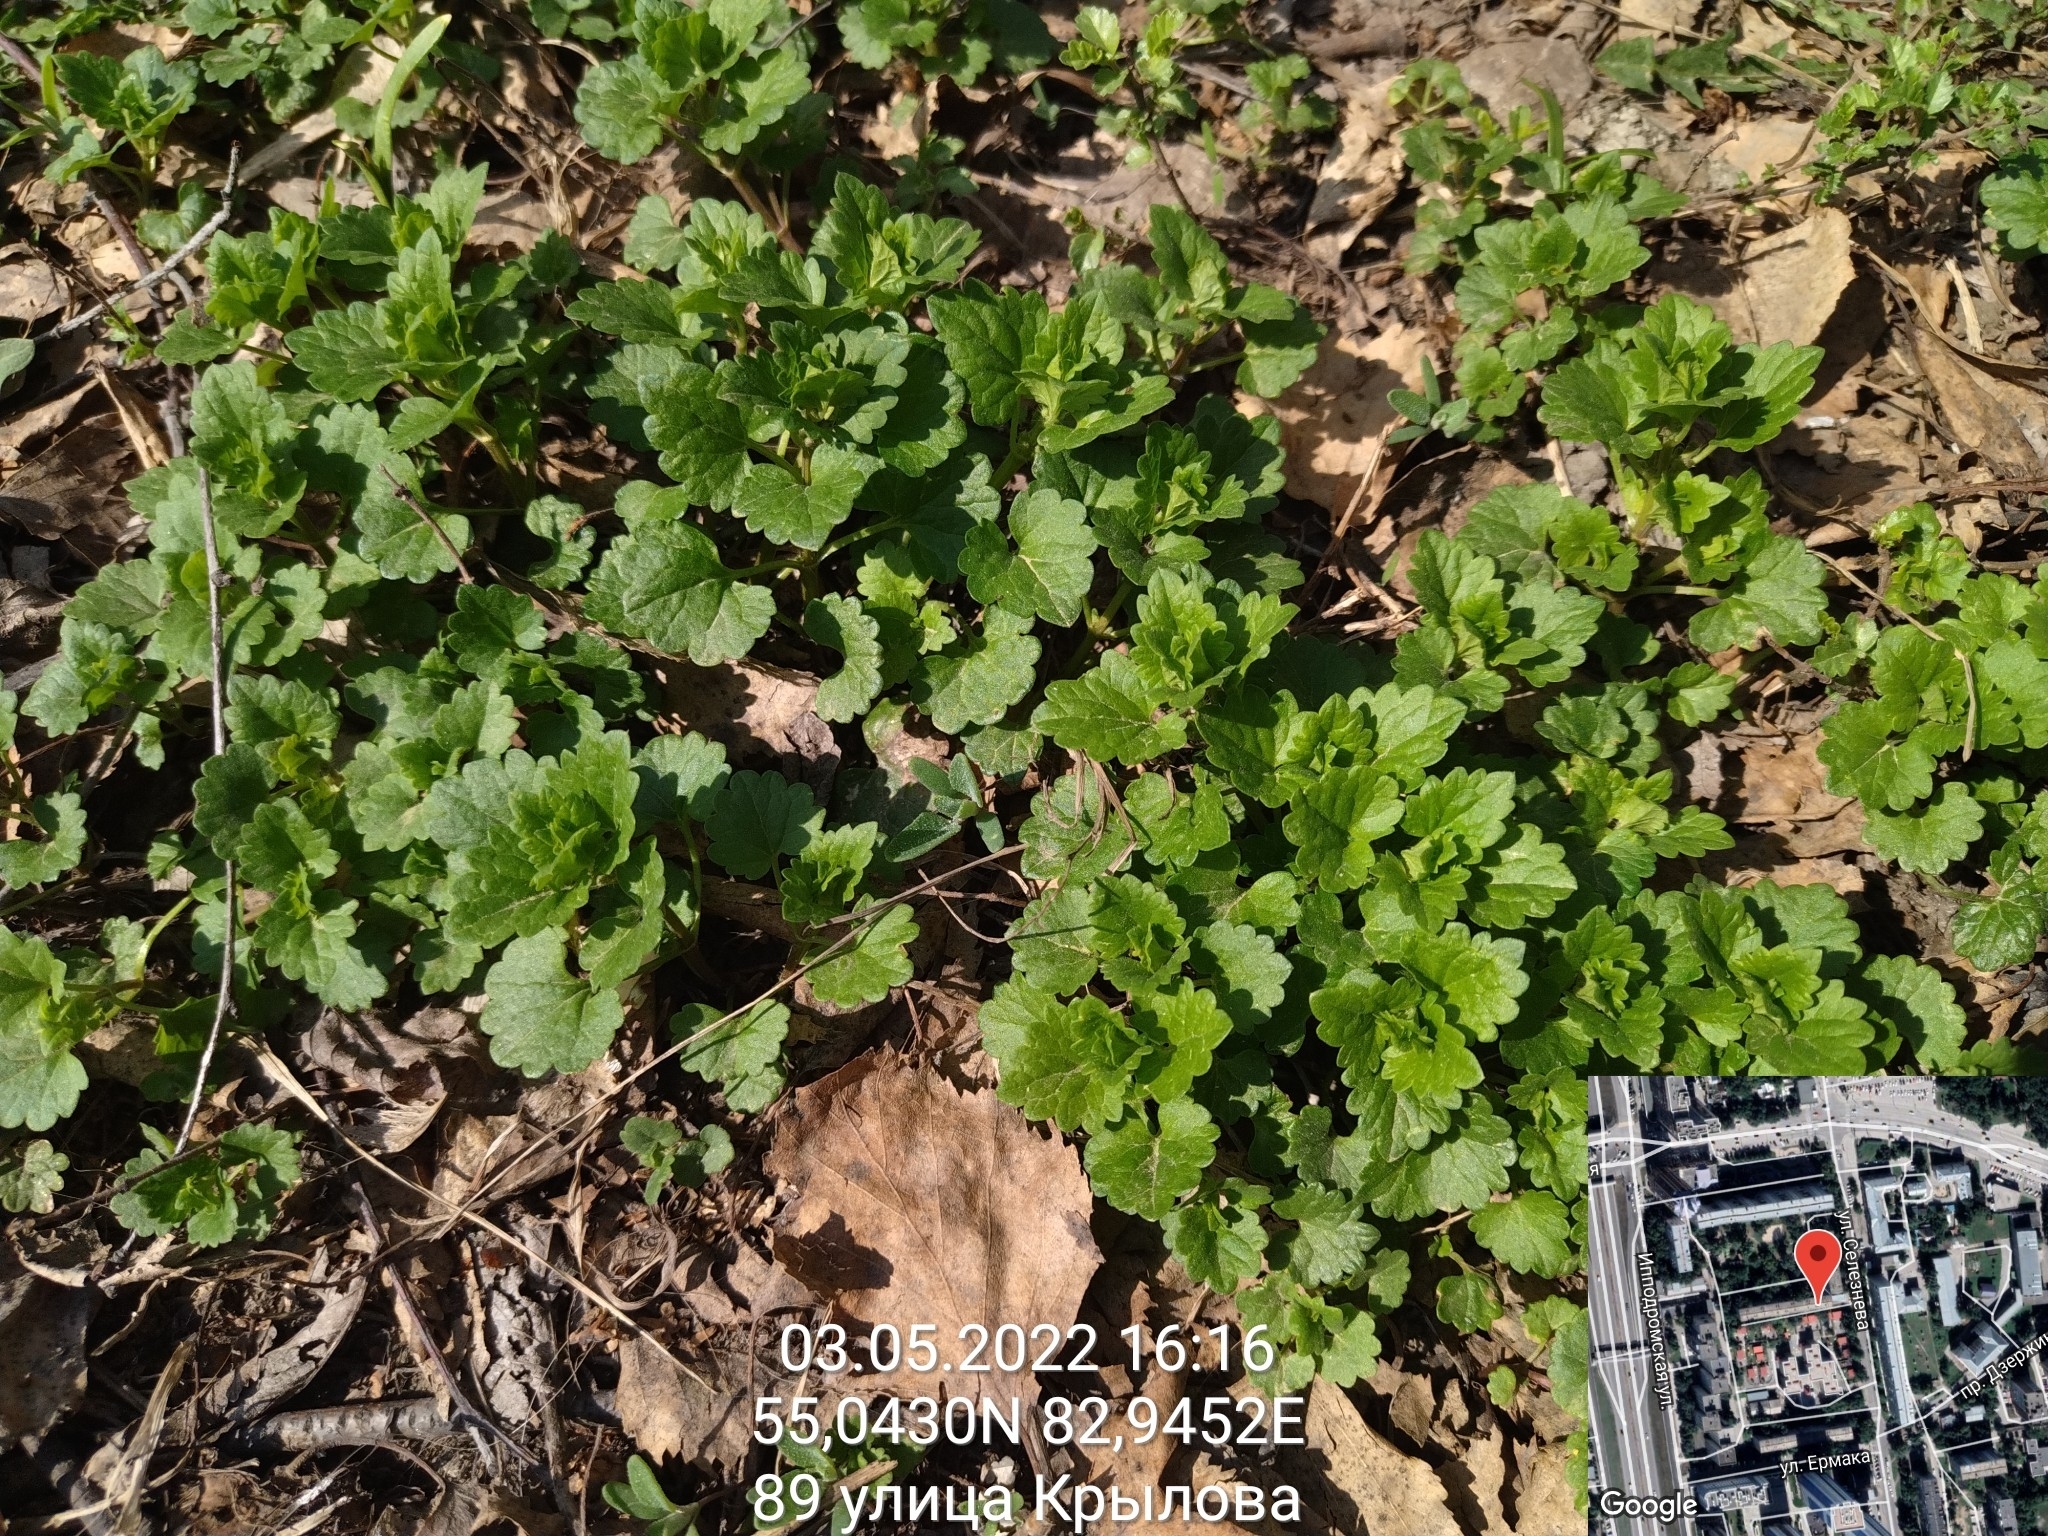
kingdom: Plantae
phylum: Tracheophyta
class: Magnoliopsida
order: Lamiales
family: Lamiaceae
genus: Glechoma
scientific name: Glechoma hederacea
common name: Ground ivy
